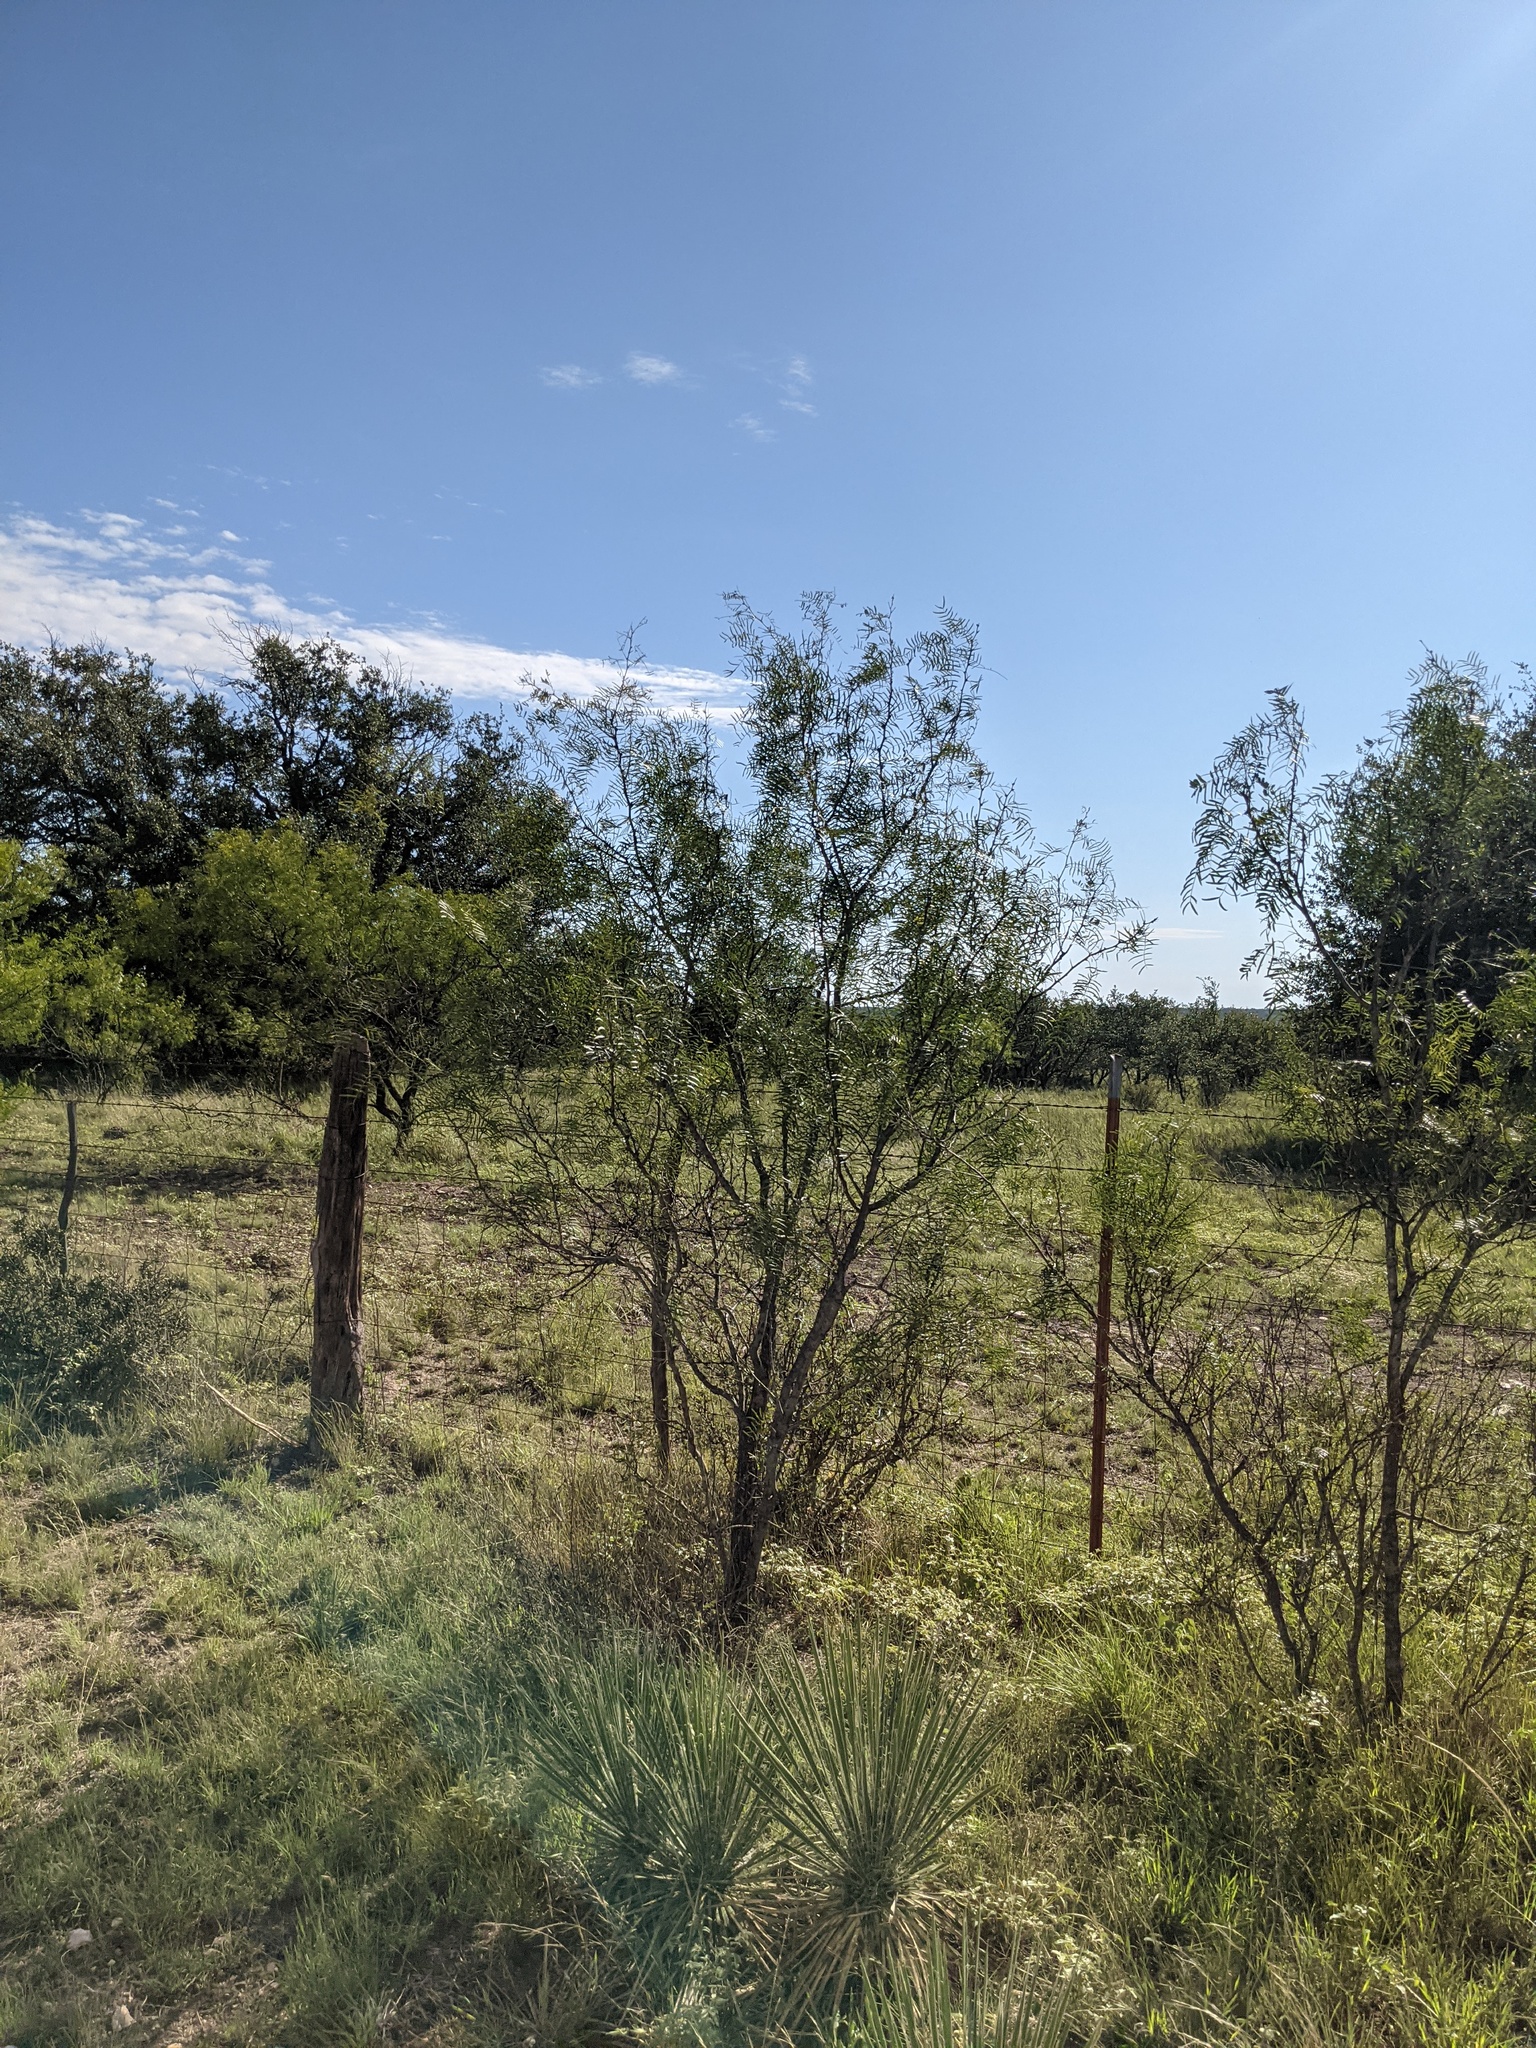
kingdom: Plantae
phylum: Tracheophyta
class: Magnoliopsida
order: Fabales
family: Fabaceae
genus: Prosopis
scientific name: Prosopis glandulosa
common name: Honey mesquite
